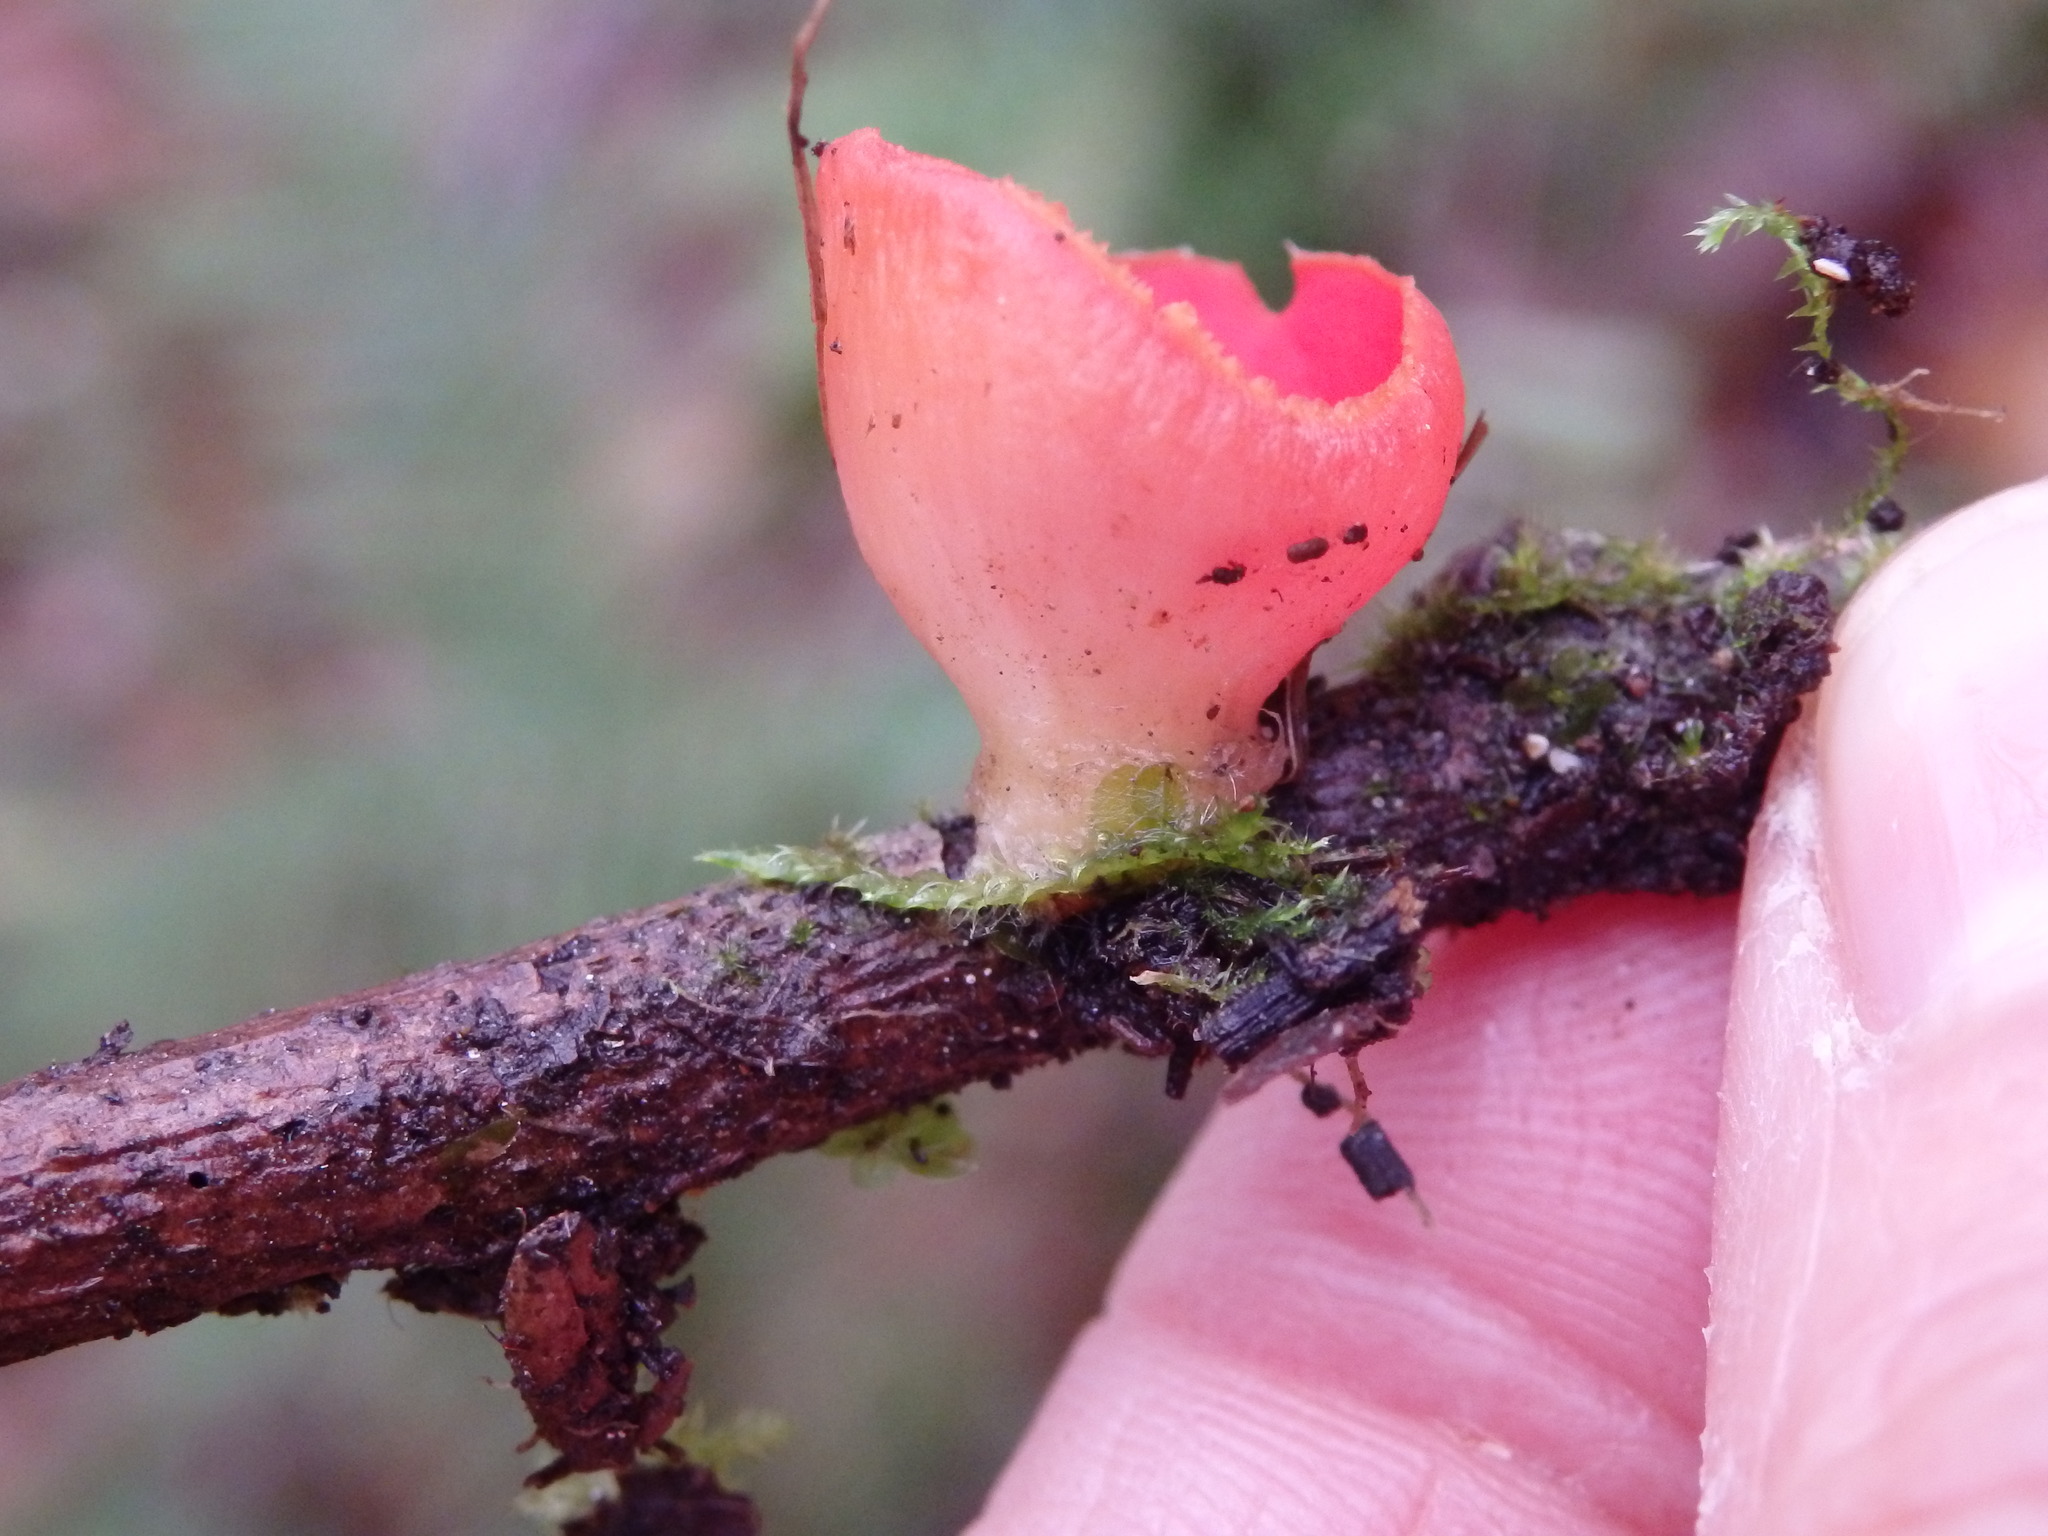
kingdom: Fungi
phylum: Ascomycota
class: Pezizomycetes
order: Pezizales
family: Sarcoscyphaceae
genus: Sarcoscypha
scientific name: Sarcoscypha
